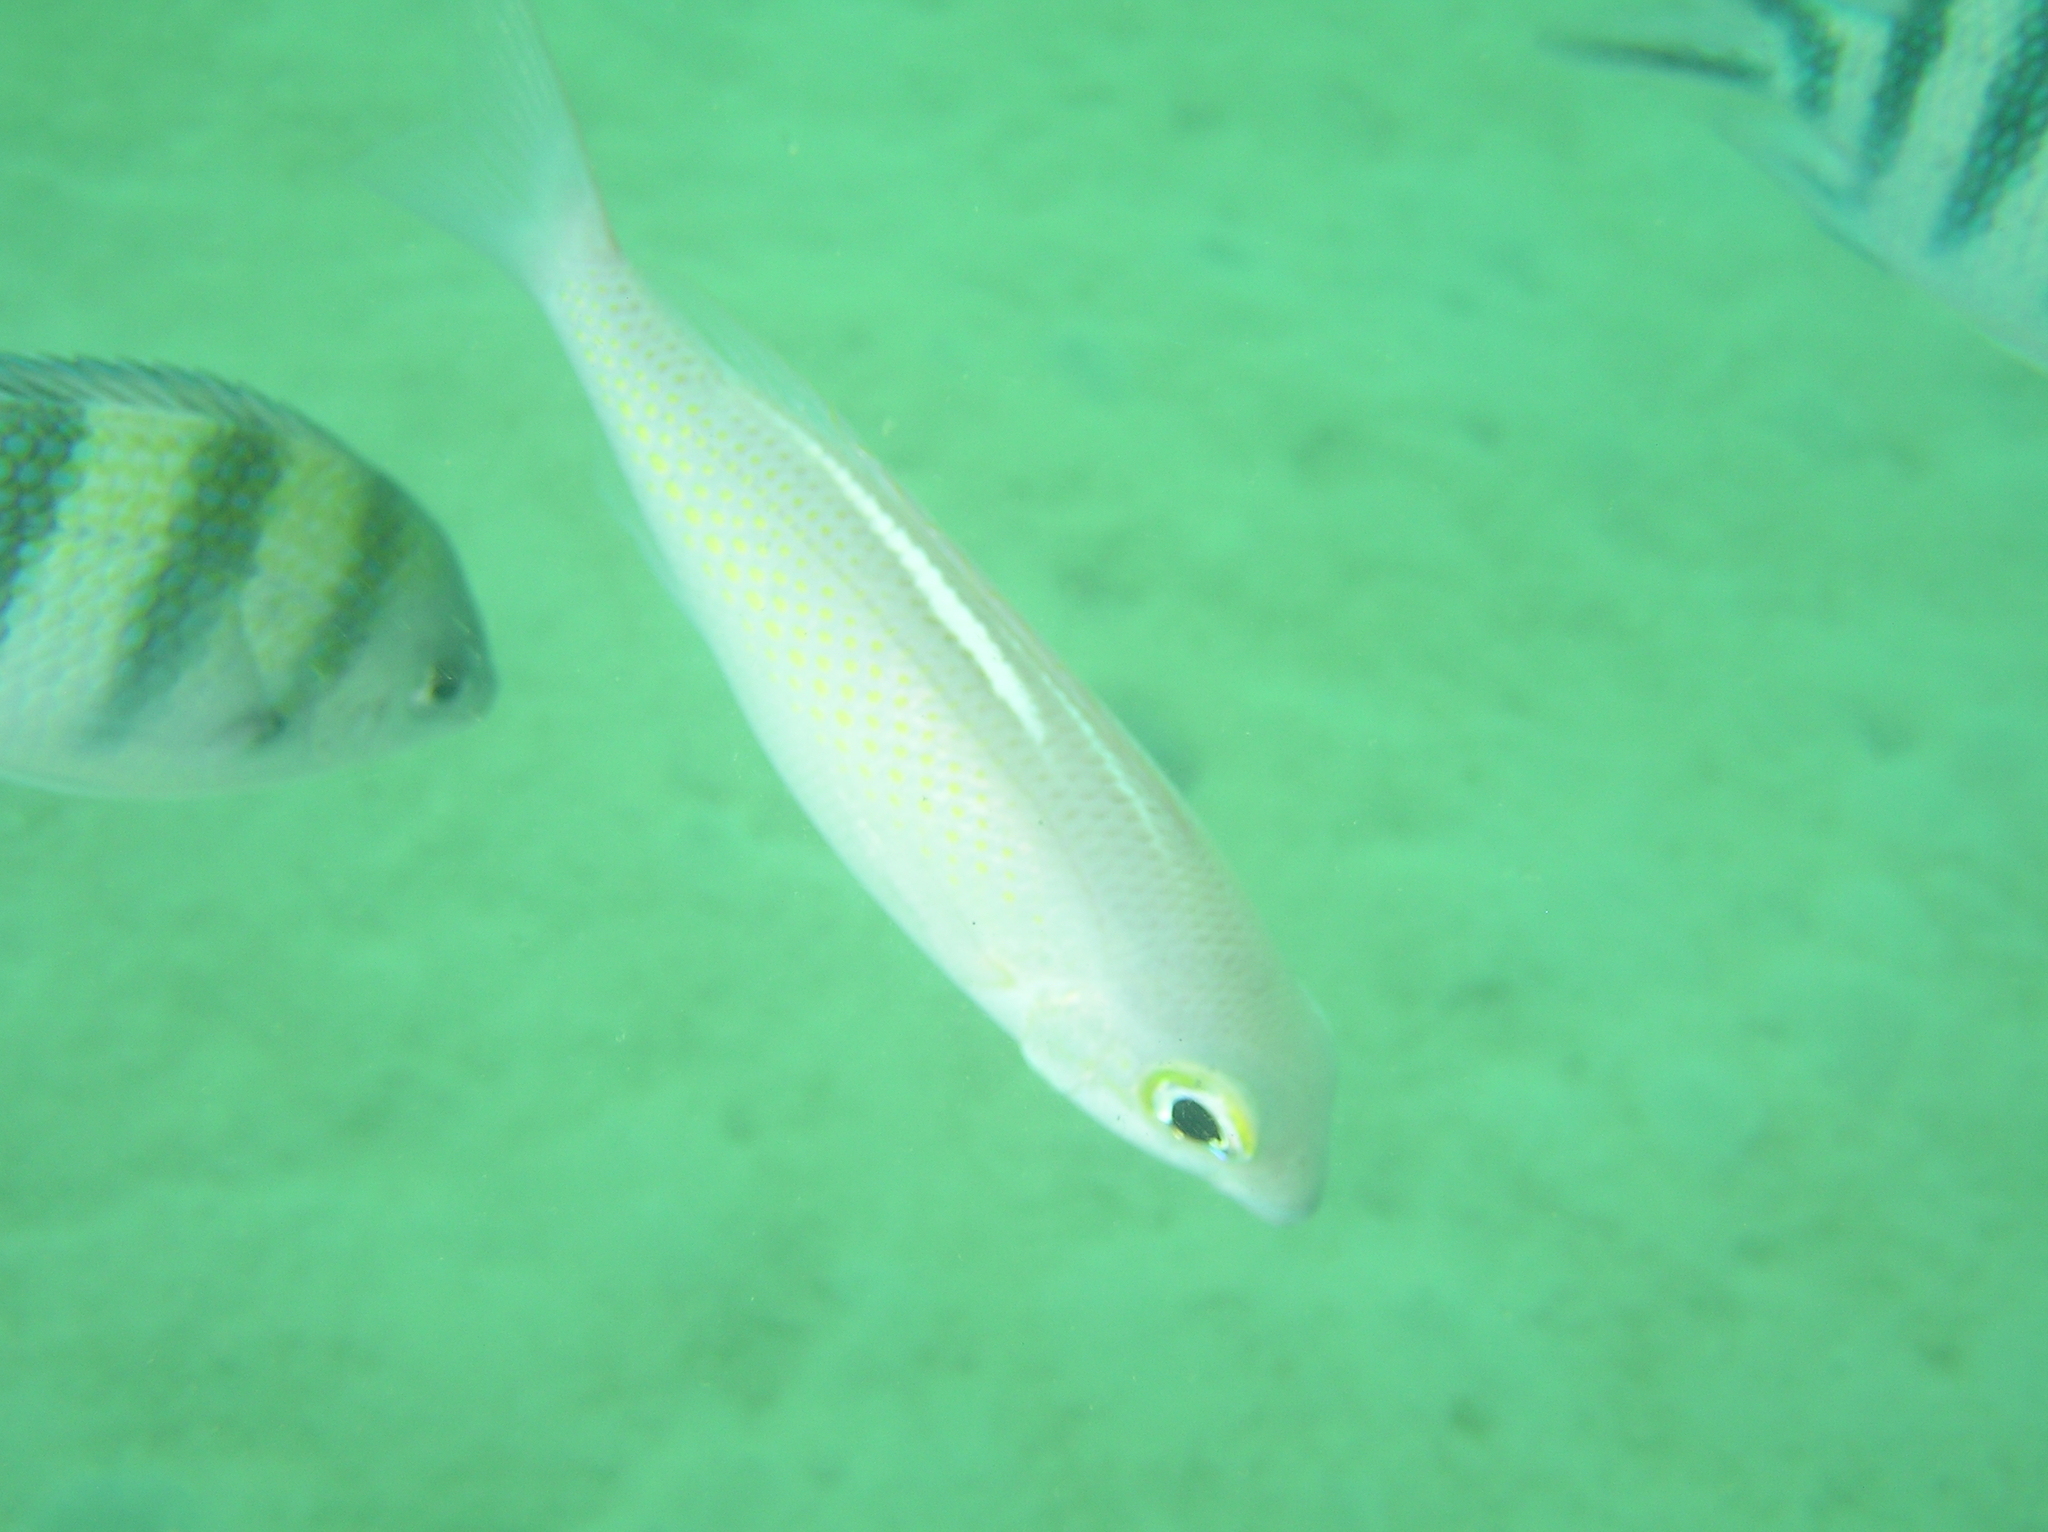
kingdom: Animalia
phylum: Chordata
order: Perciformes
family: Nemipteridae
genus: Scolopsis
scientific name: Scolopsis ciliata
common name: Ciliate spinecheek
